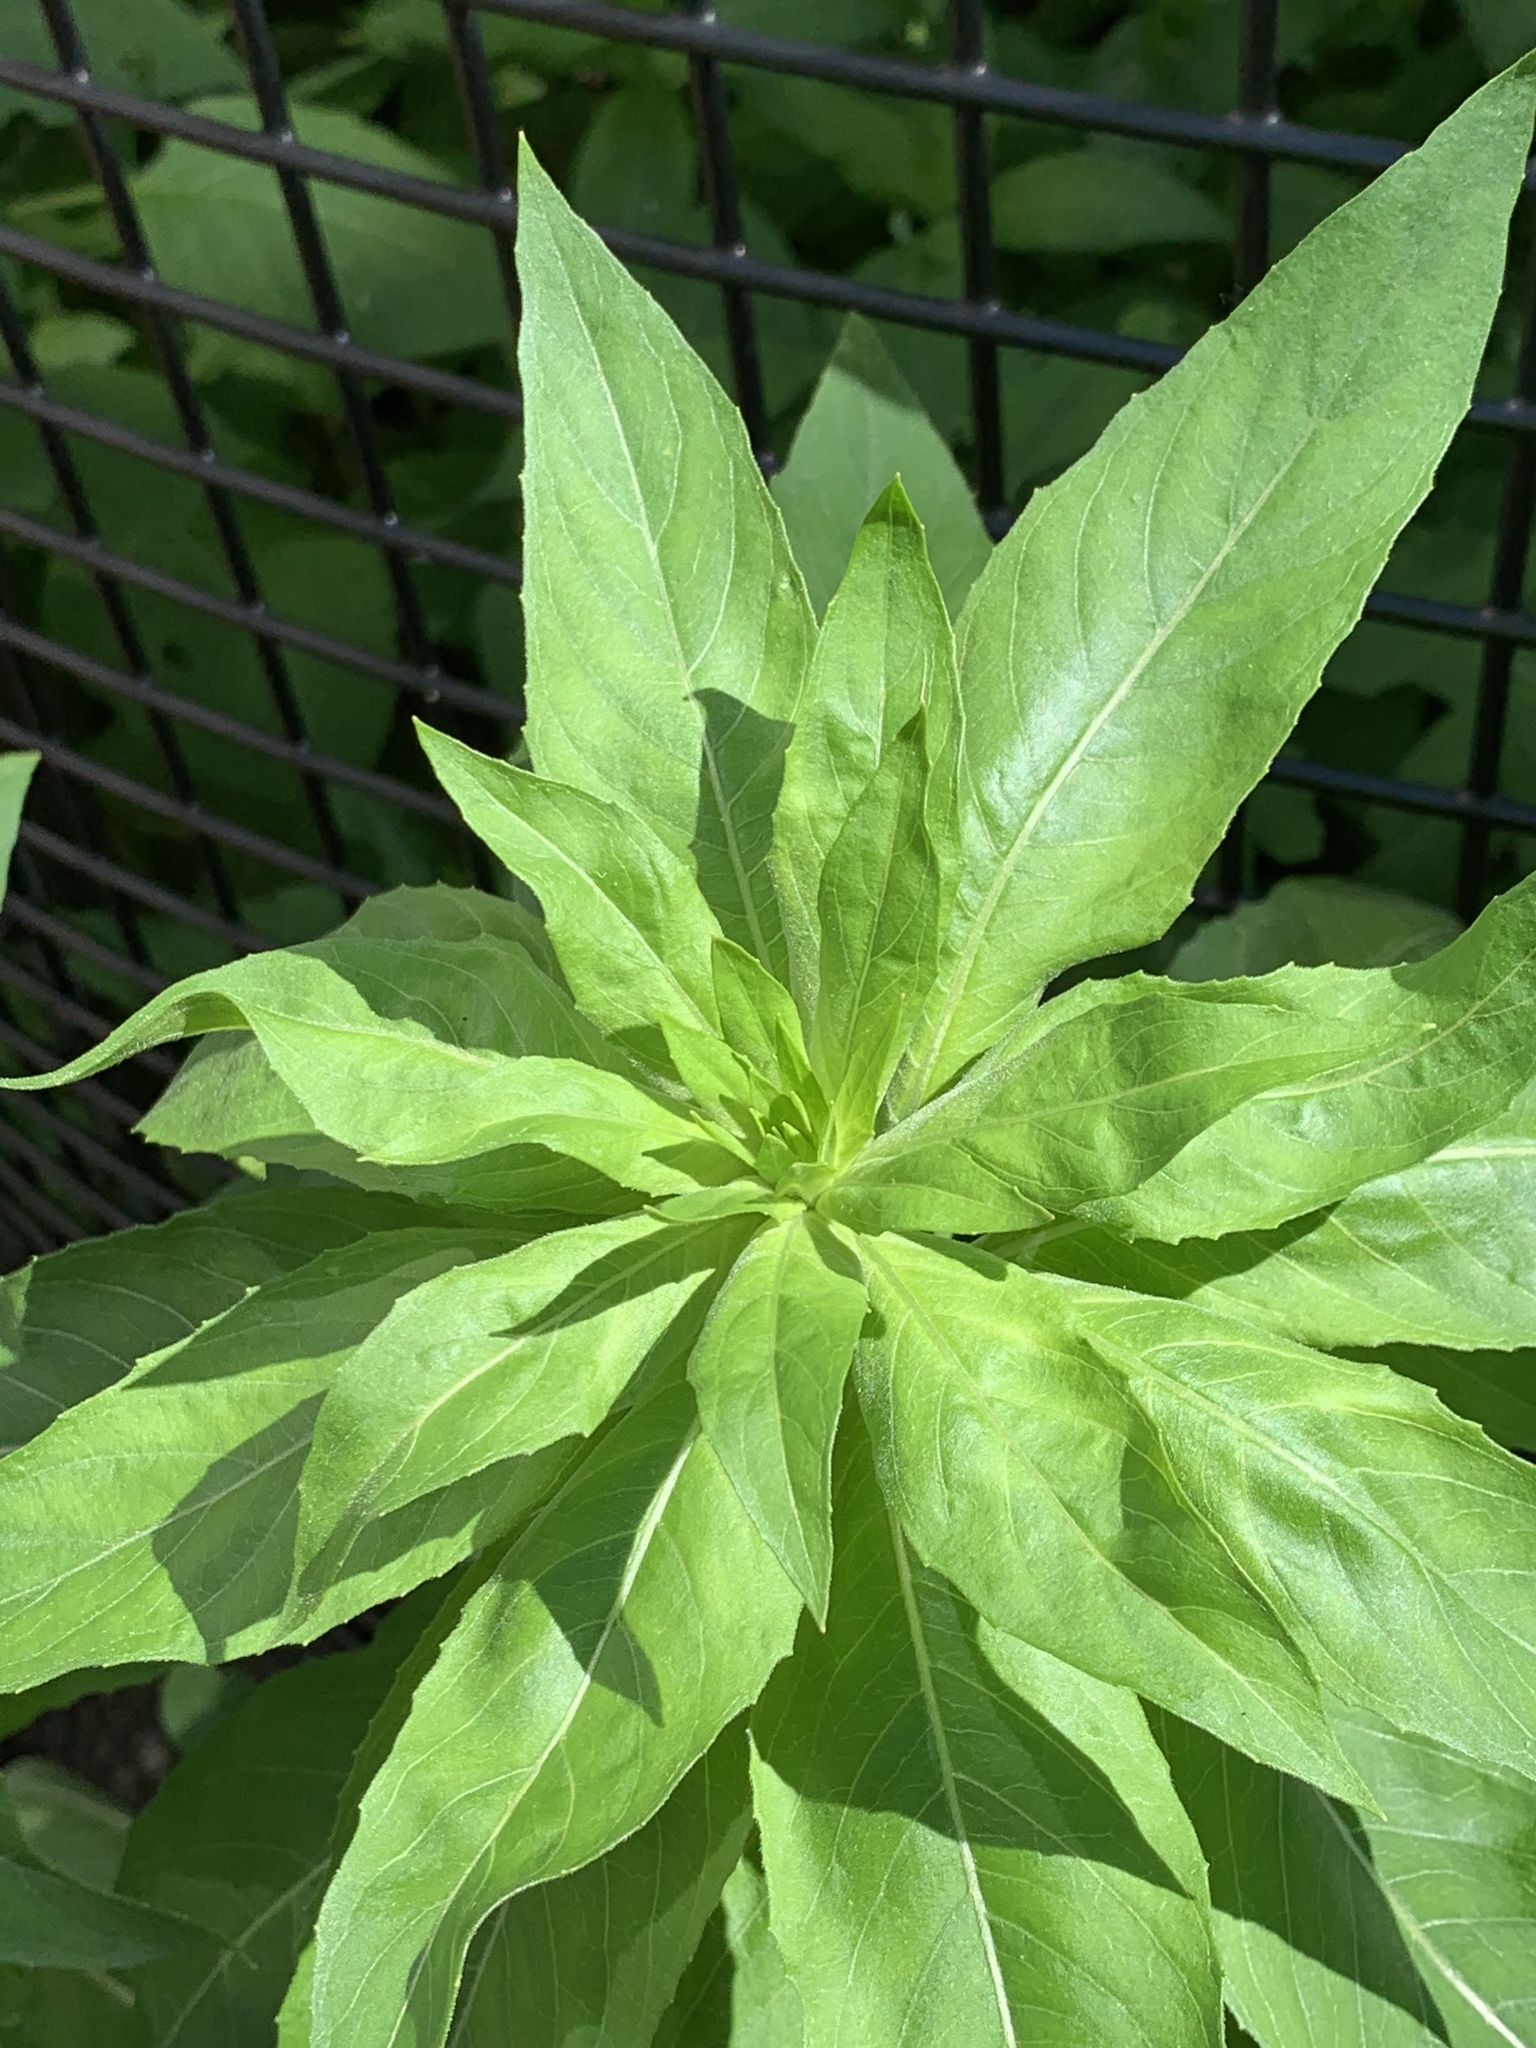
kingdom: Plantae
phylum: Tracheophyta
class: Magnoliopsida
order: Myrtales
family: Onagraceae
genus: Oenothera
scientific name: Oenothera biennis
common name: Common evening-primrose
